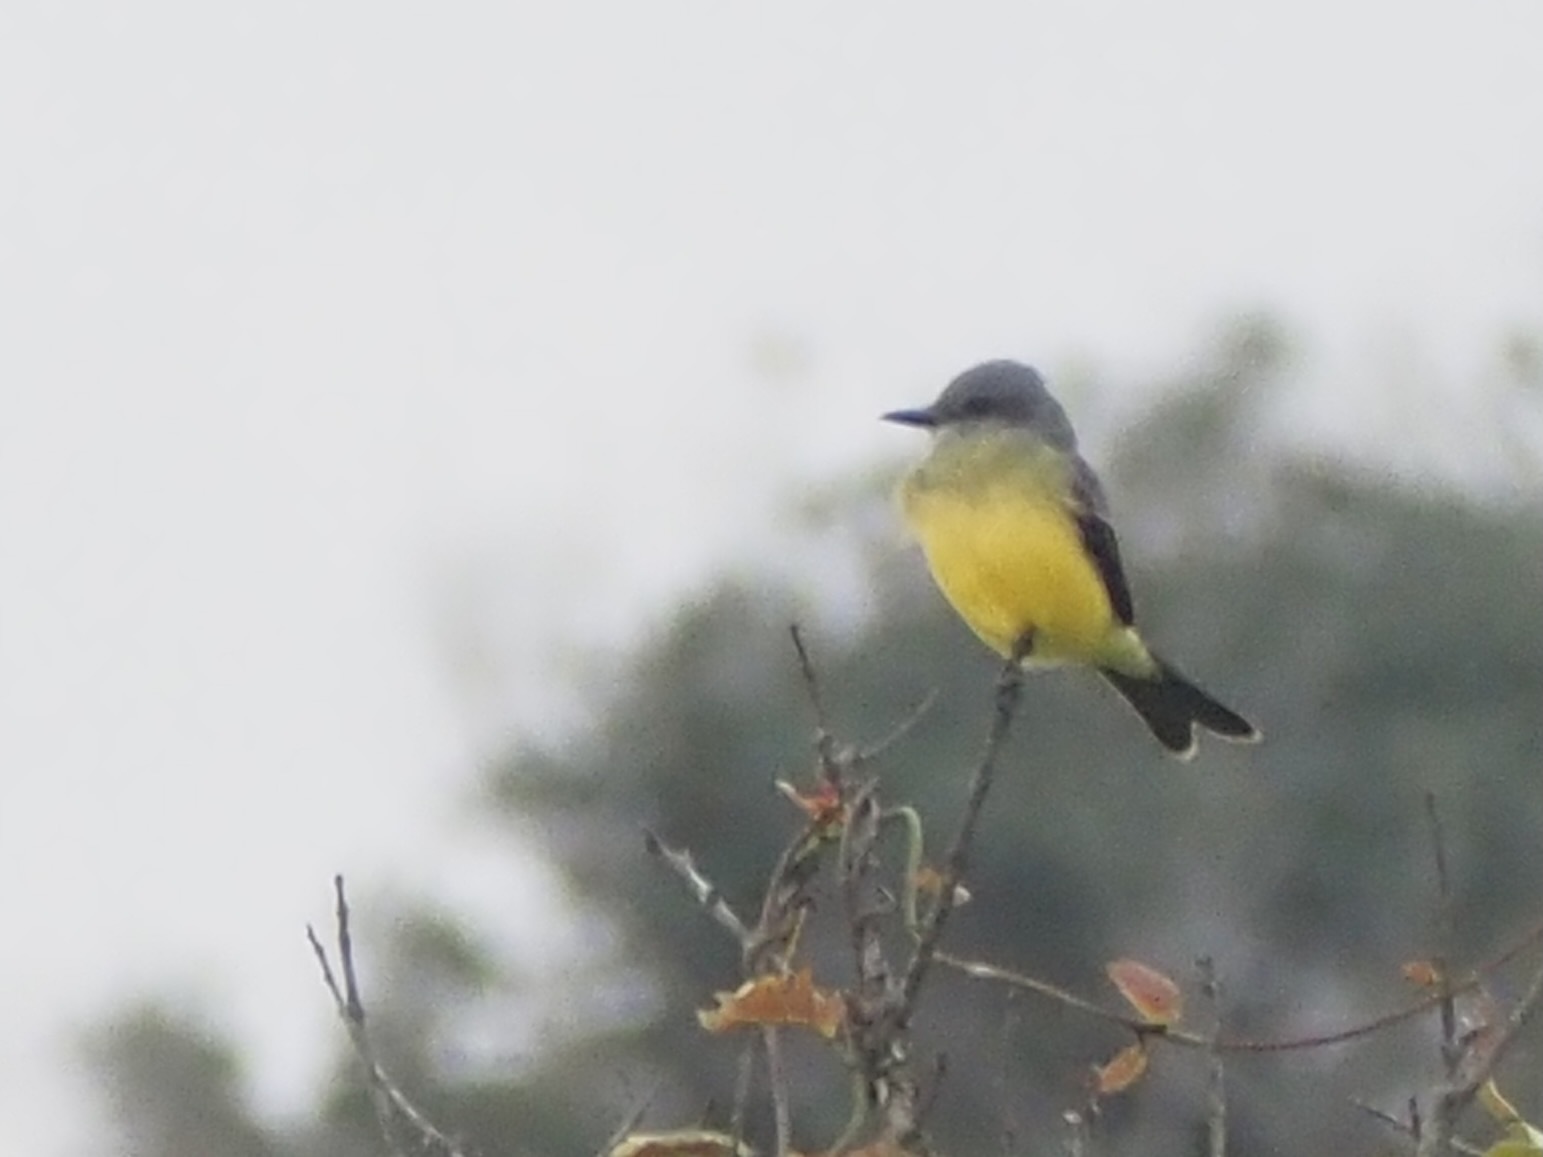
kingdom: Animalia
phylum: Chordata
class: Aves
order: Passeriformes
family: Tyrannidae
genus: Tyrannus
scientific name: Tyrannus melancholicus
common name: Tropical kingbird
